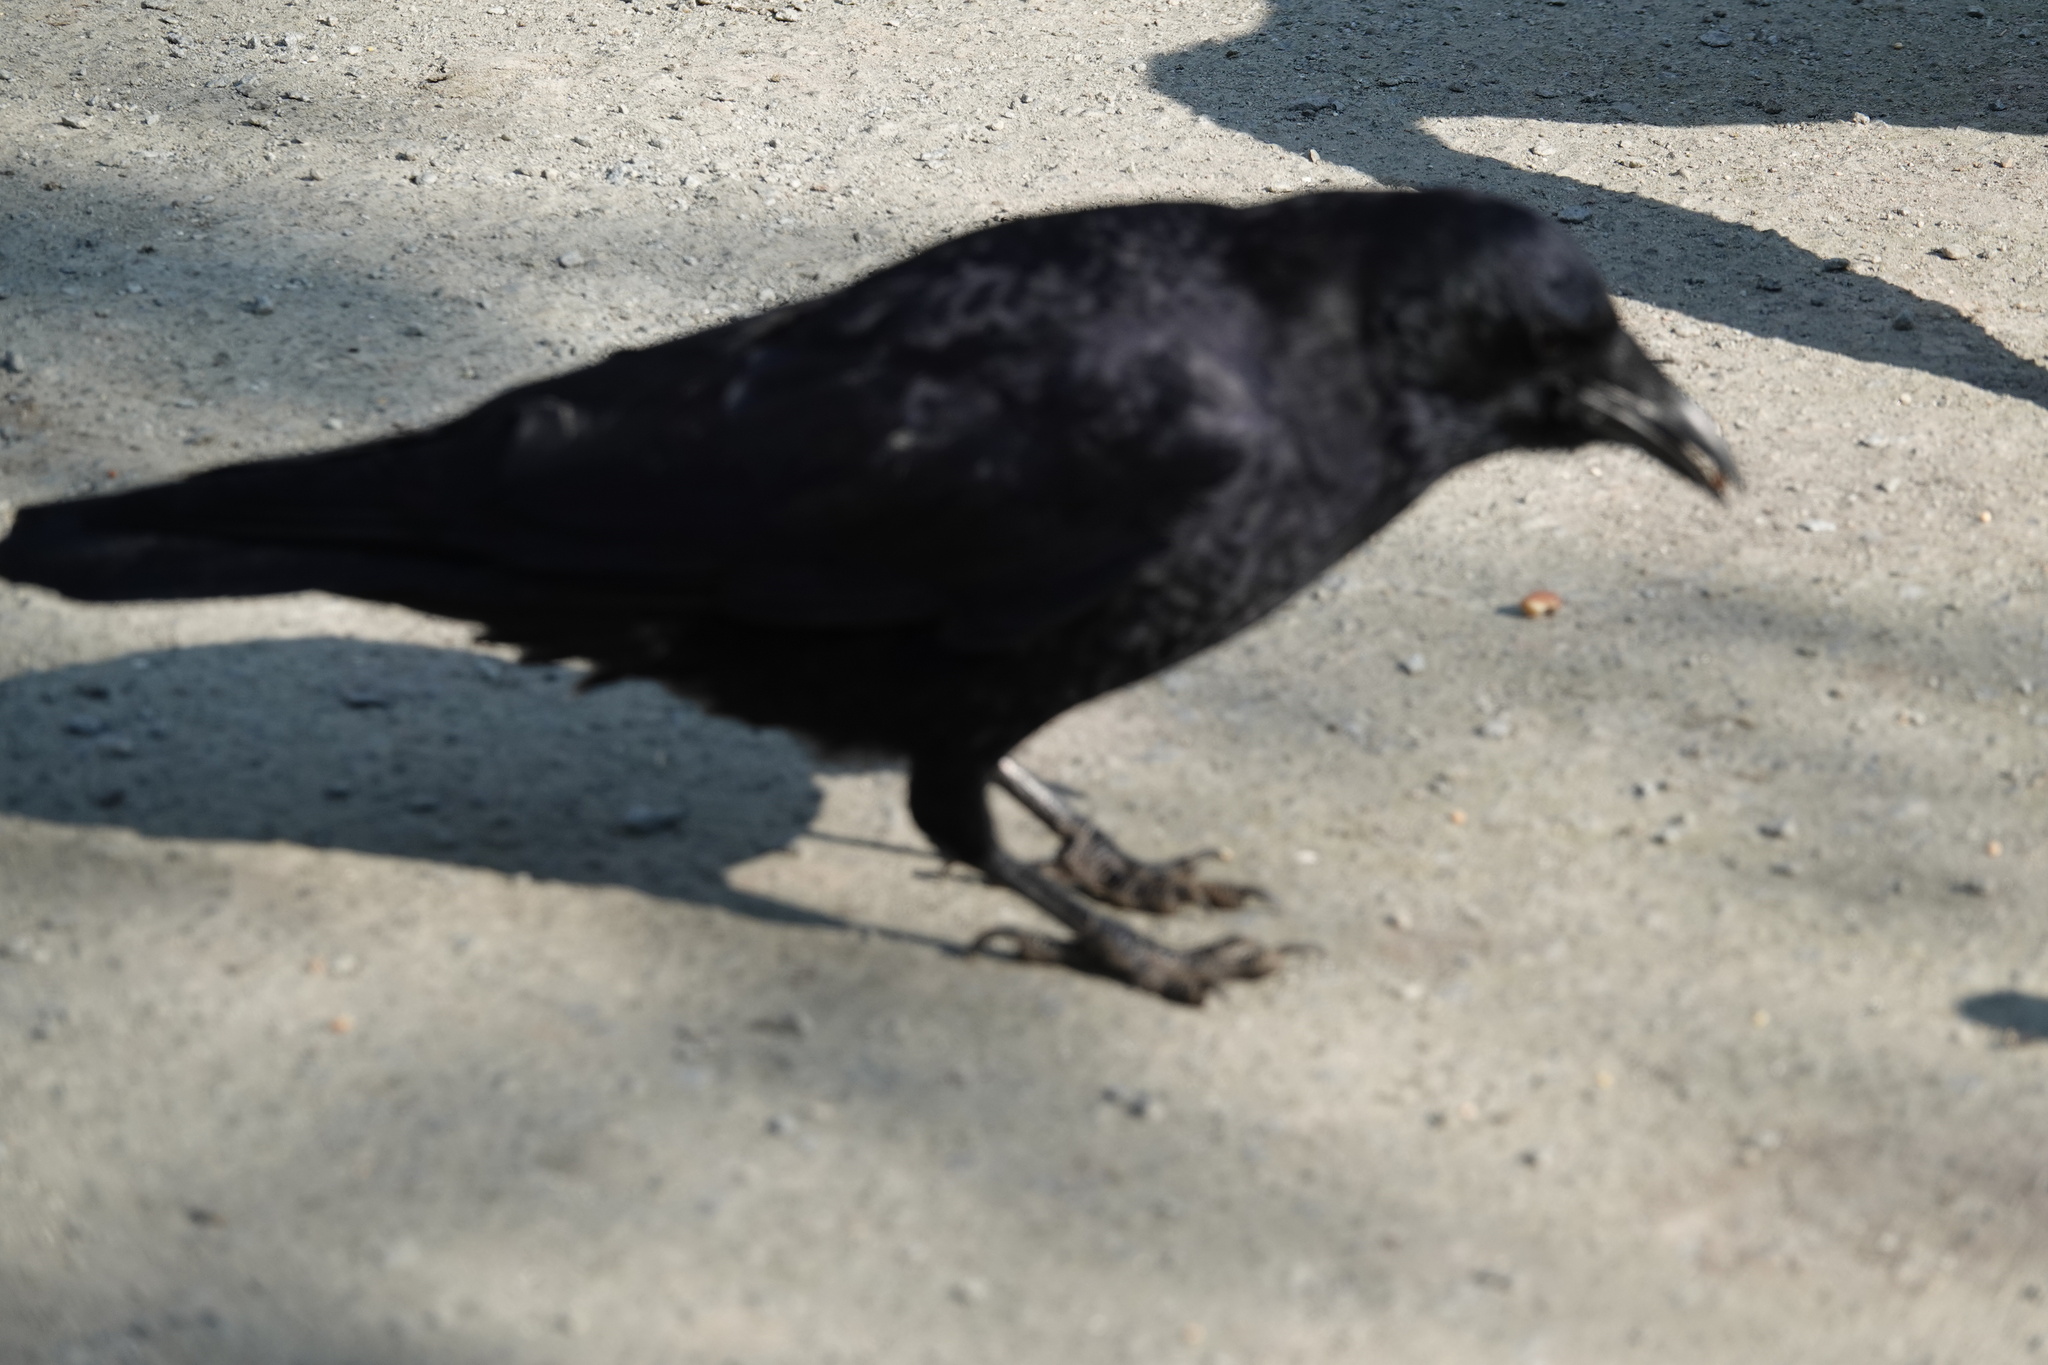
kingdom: Animalia
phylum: Chordata
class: Aves
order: Passeriformes
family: Corvidae
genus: Corvus
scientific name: Corvus brachyrhynchos
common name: American crow
